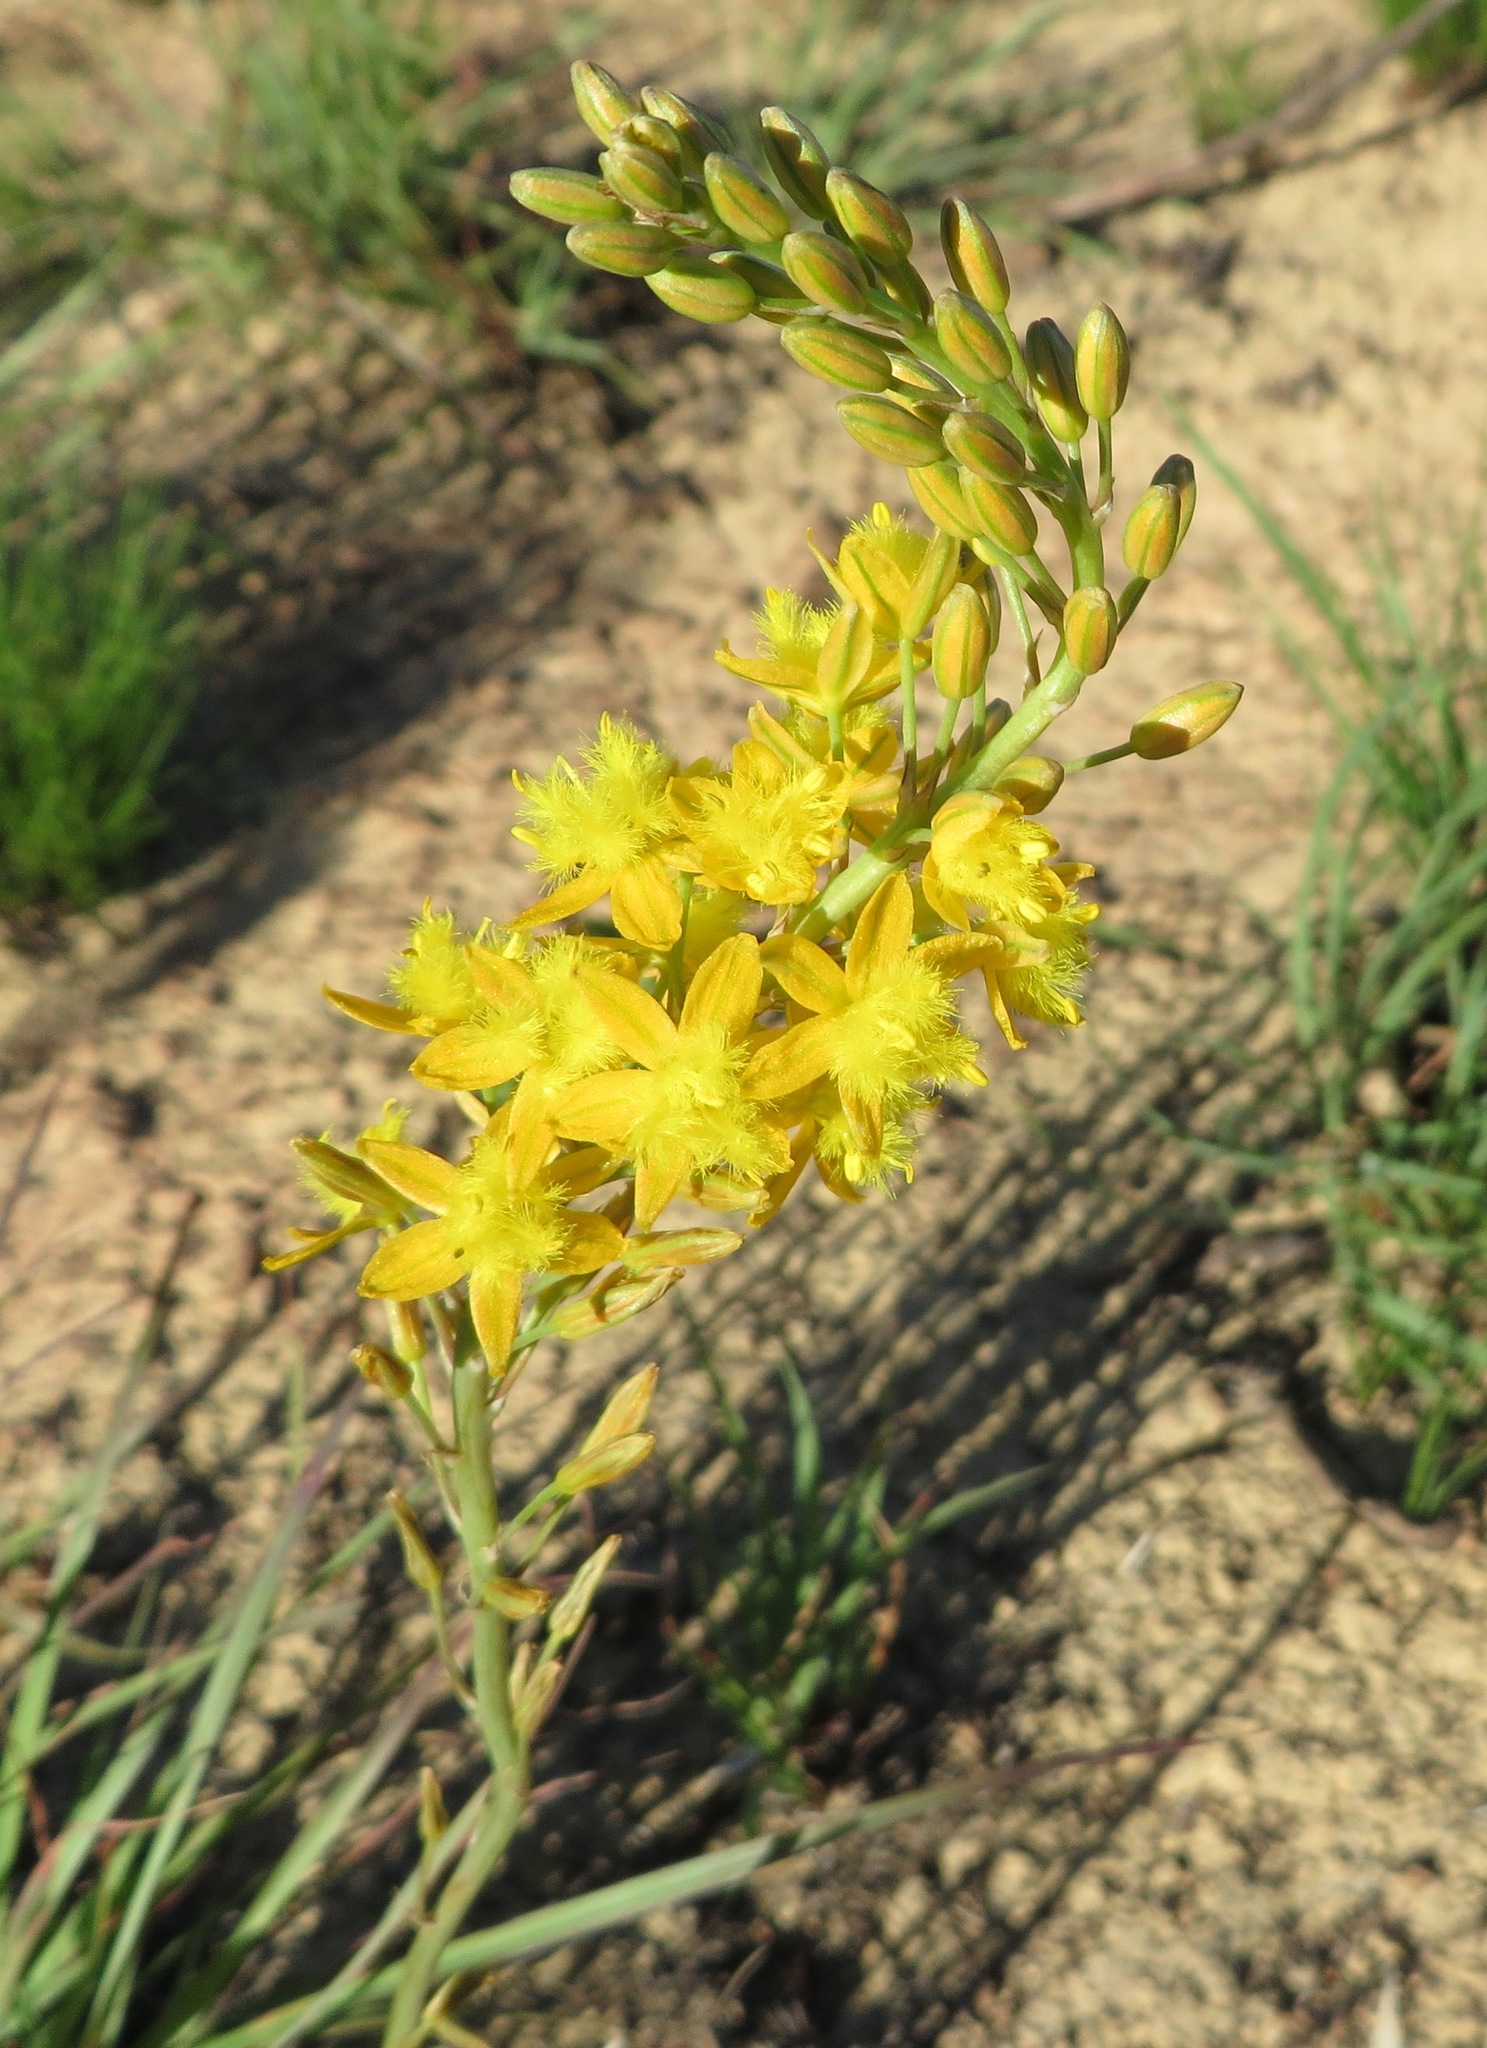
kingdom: Plantae
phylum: Tracheophyta
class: Liliopsida
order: Asparagales
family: Asphodelaceae
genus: Bulbine
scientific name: Bulbine cepacea
